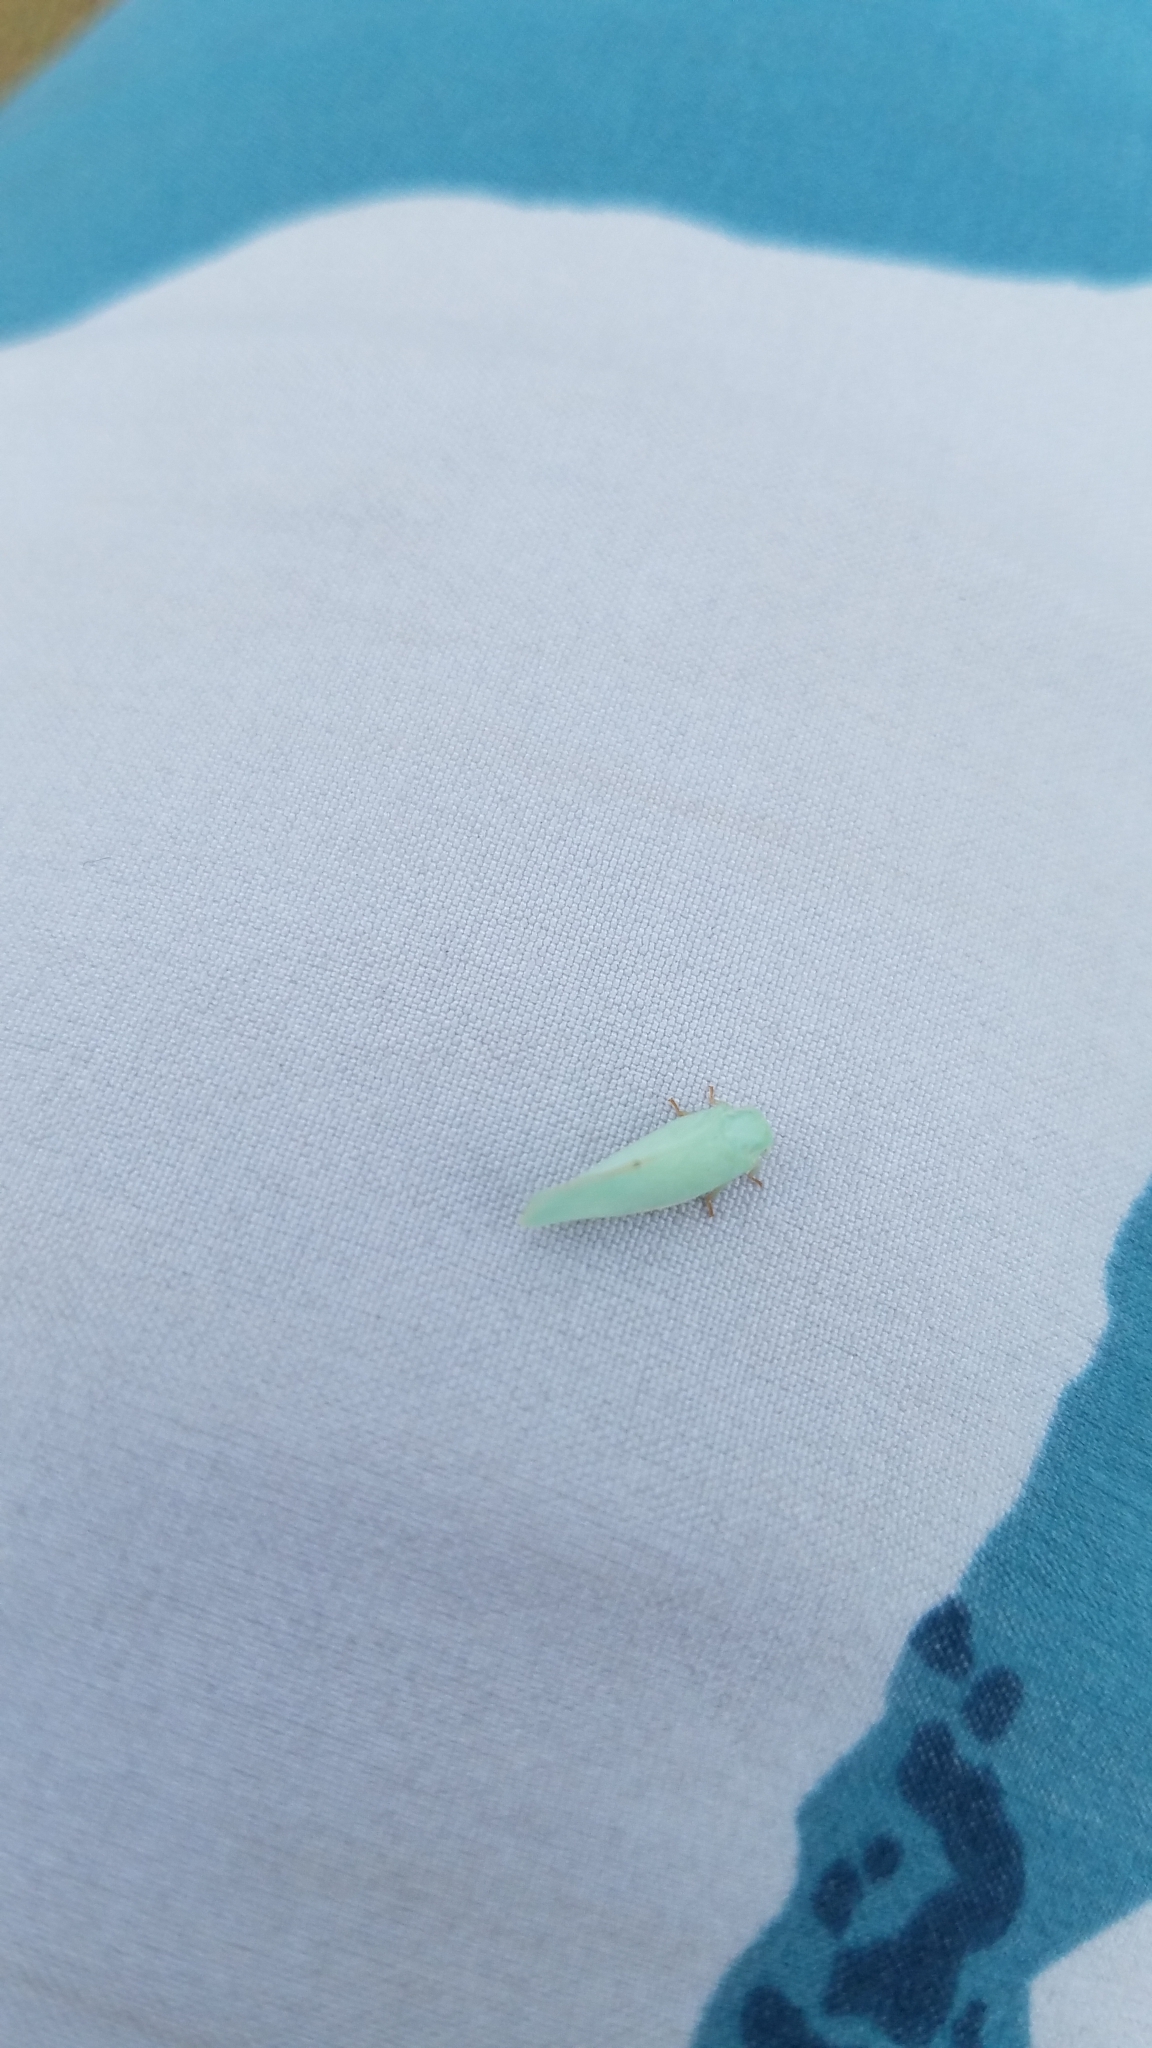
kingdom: Animalia
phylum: Arthropoda
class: Insecta
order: Hemiptera
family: Flatidae
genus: Flatormenis
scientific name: Flatormenis proxima
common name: Northern flatid planthopper
